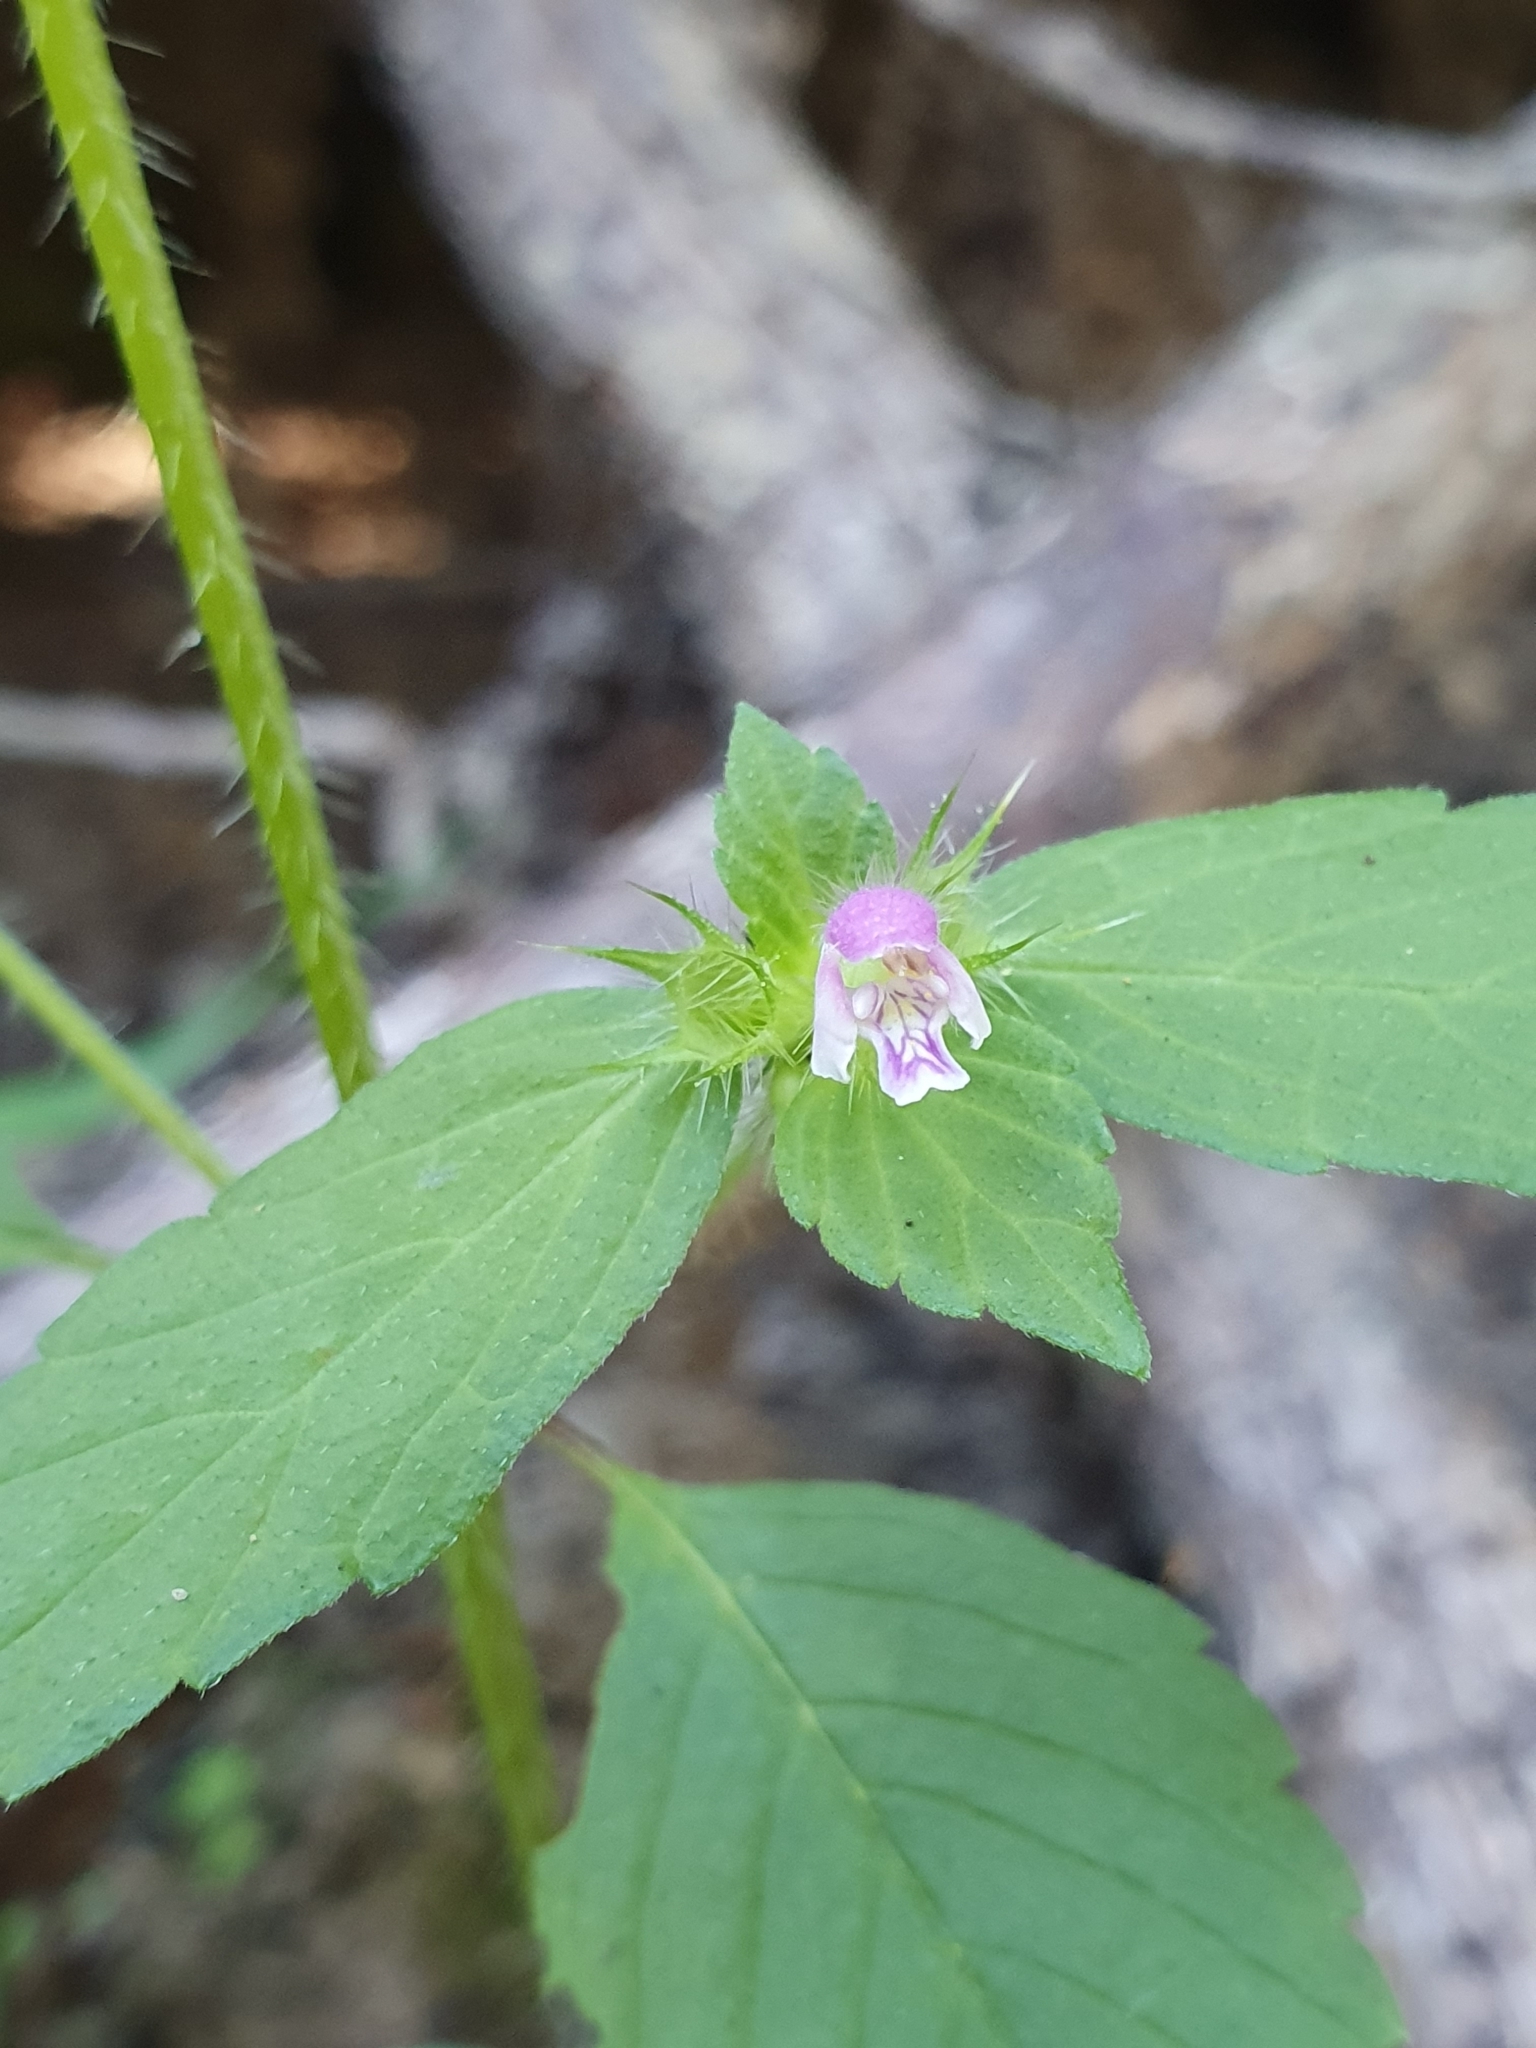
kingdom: Plantae
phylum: Tracheophyta
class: Magnoliopsida
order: Lamiales
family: Lamiaceae
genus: Galeopsis
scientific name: Galeopsis bifida
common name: Bifid hemp-nettle
